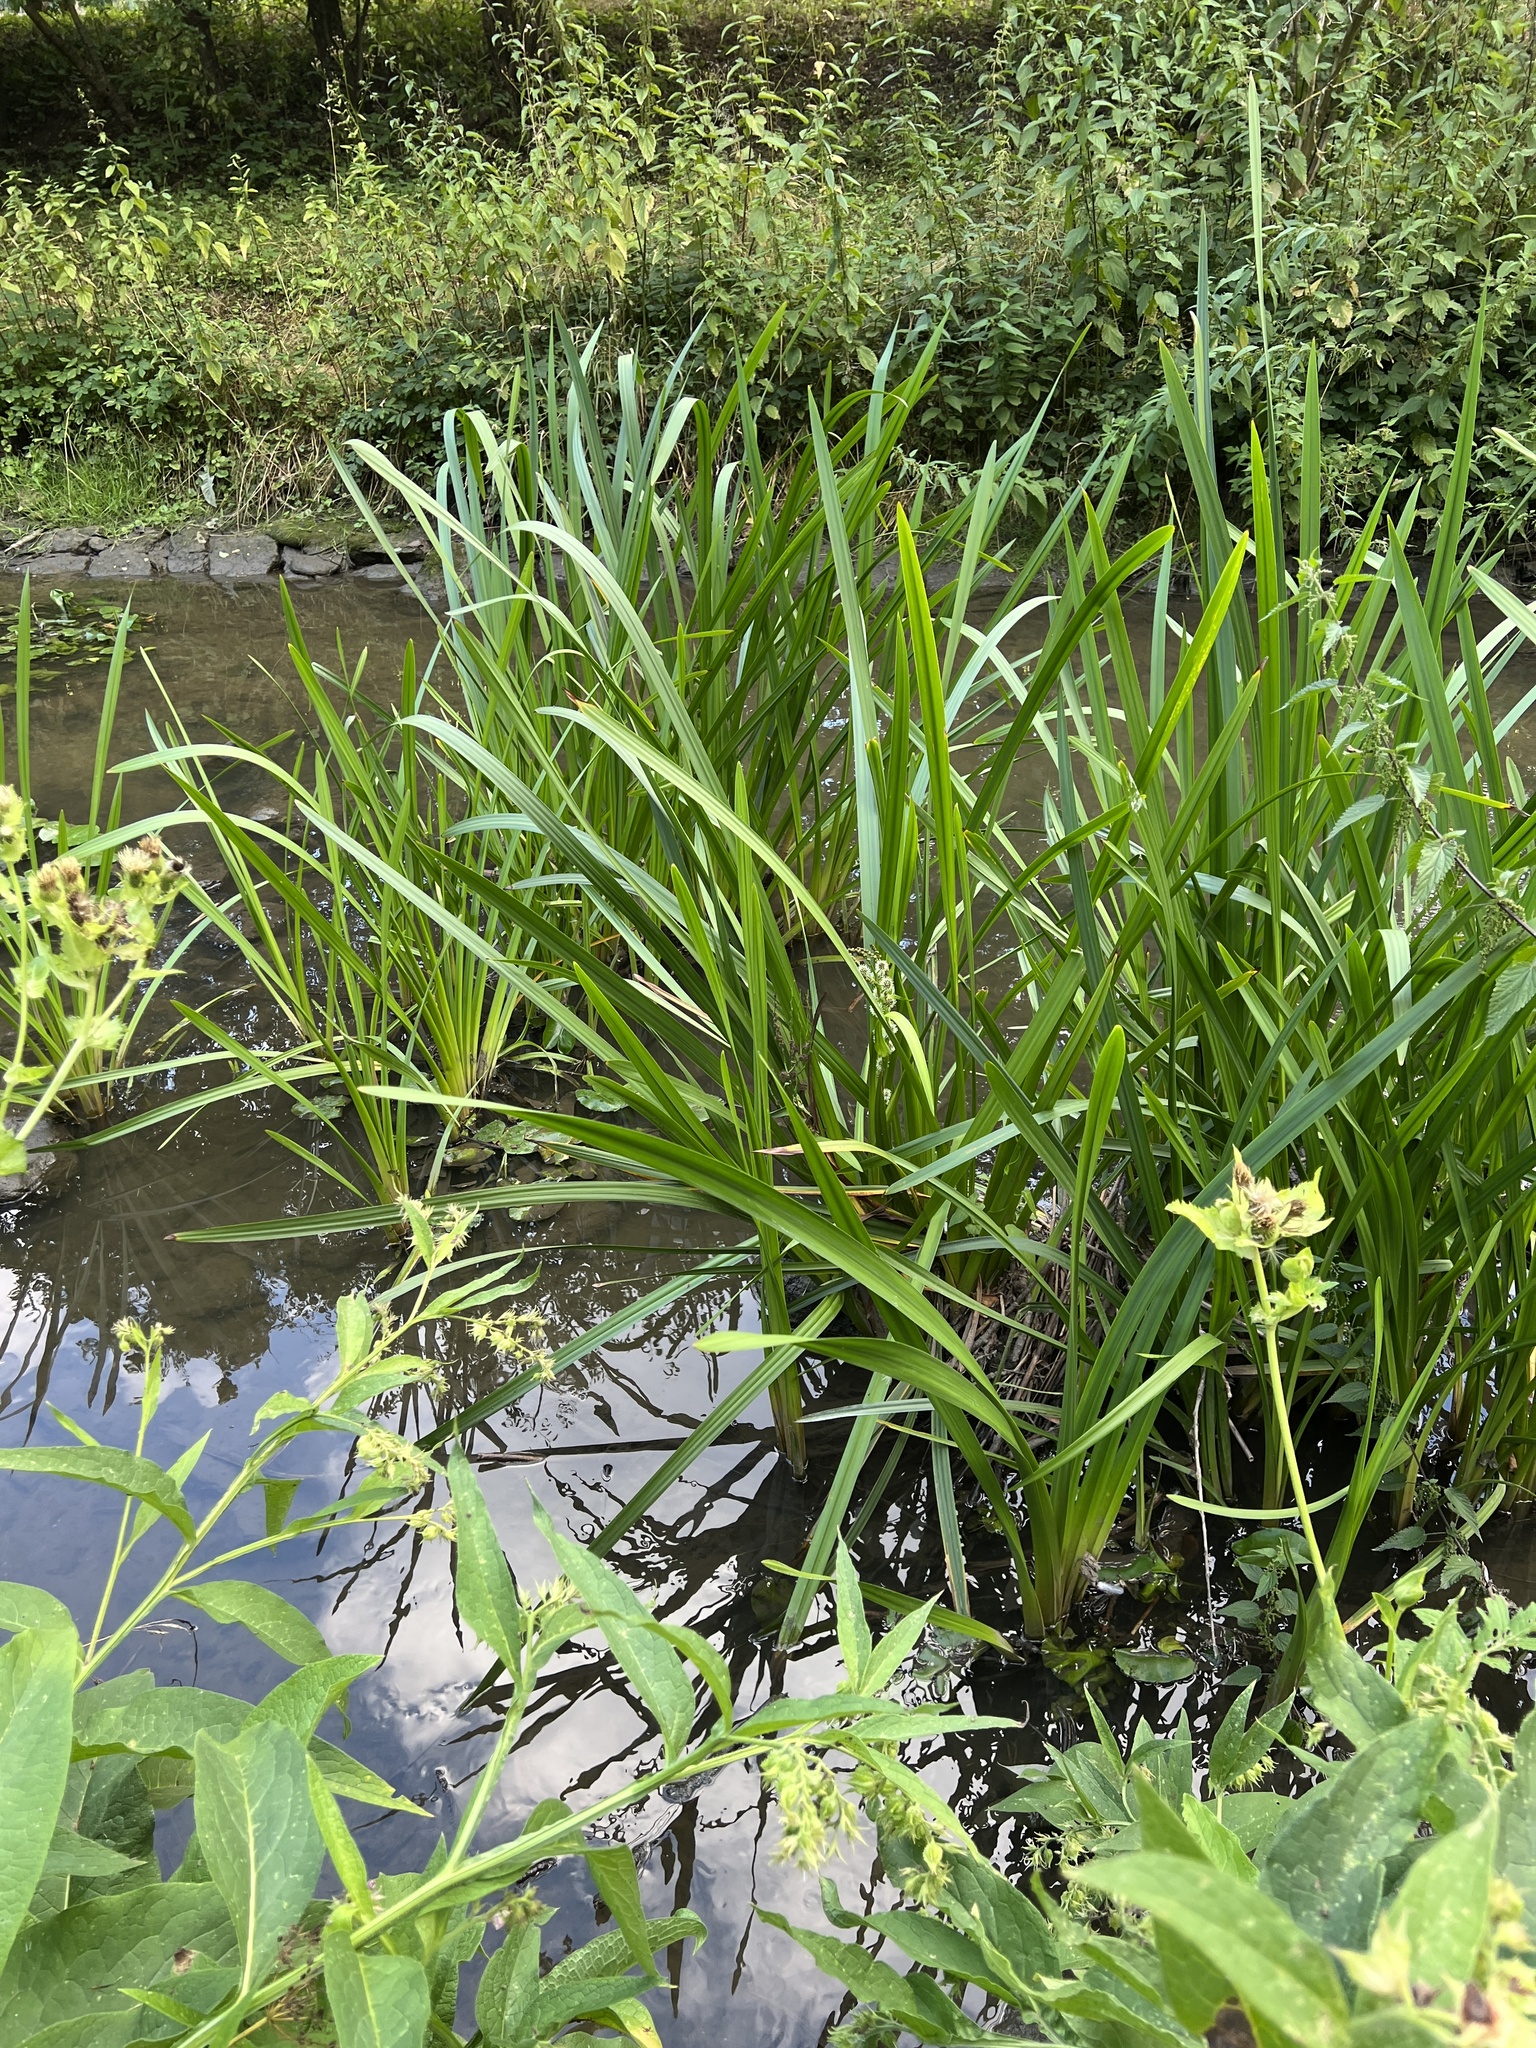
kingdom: Plantae
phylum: Tracheophyta
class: Liliopsida
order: Poales
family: Typhaceae
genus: Sparganium
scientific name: Sparganium erectum
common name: Branched bur-reed
